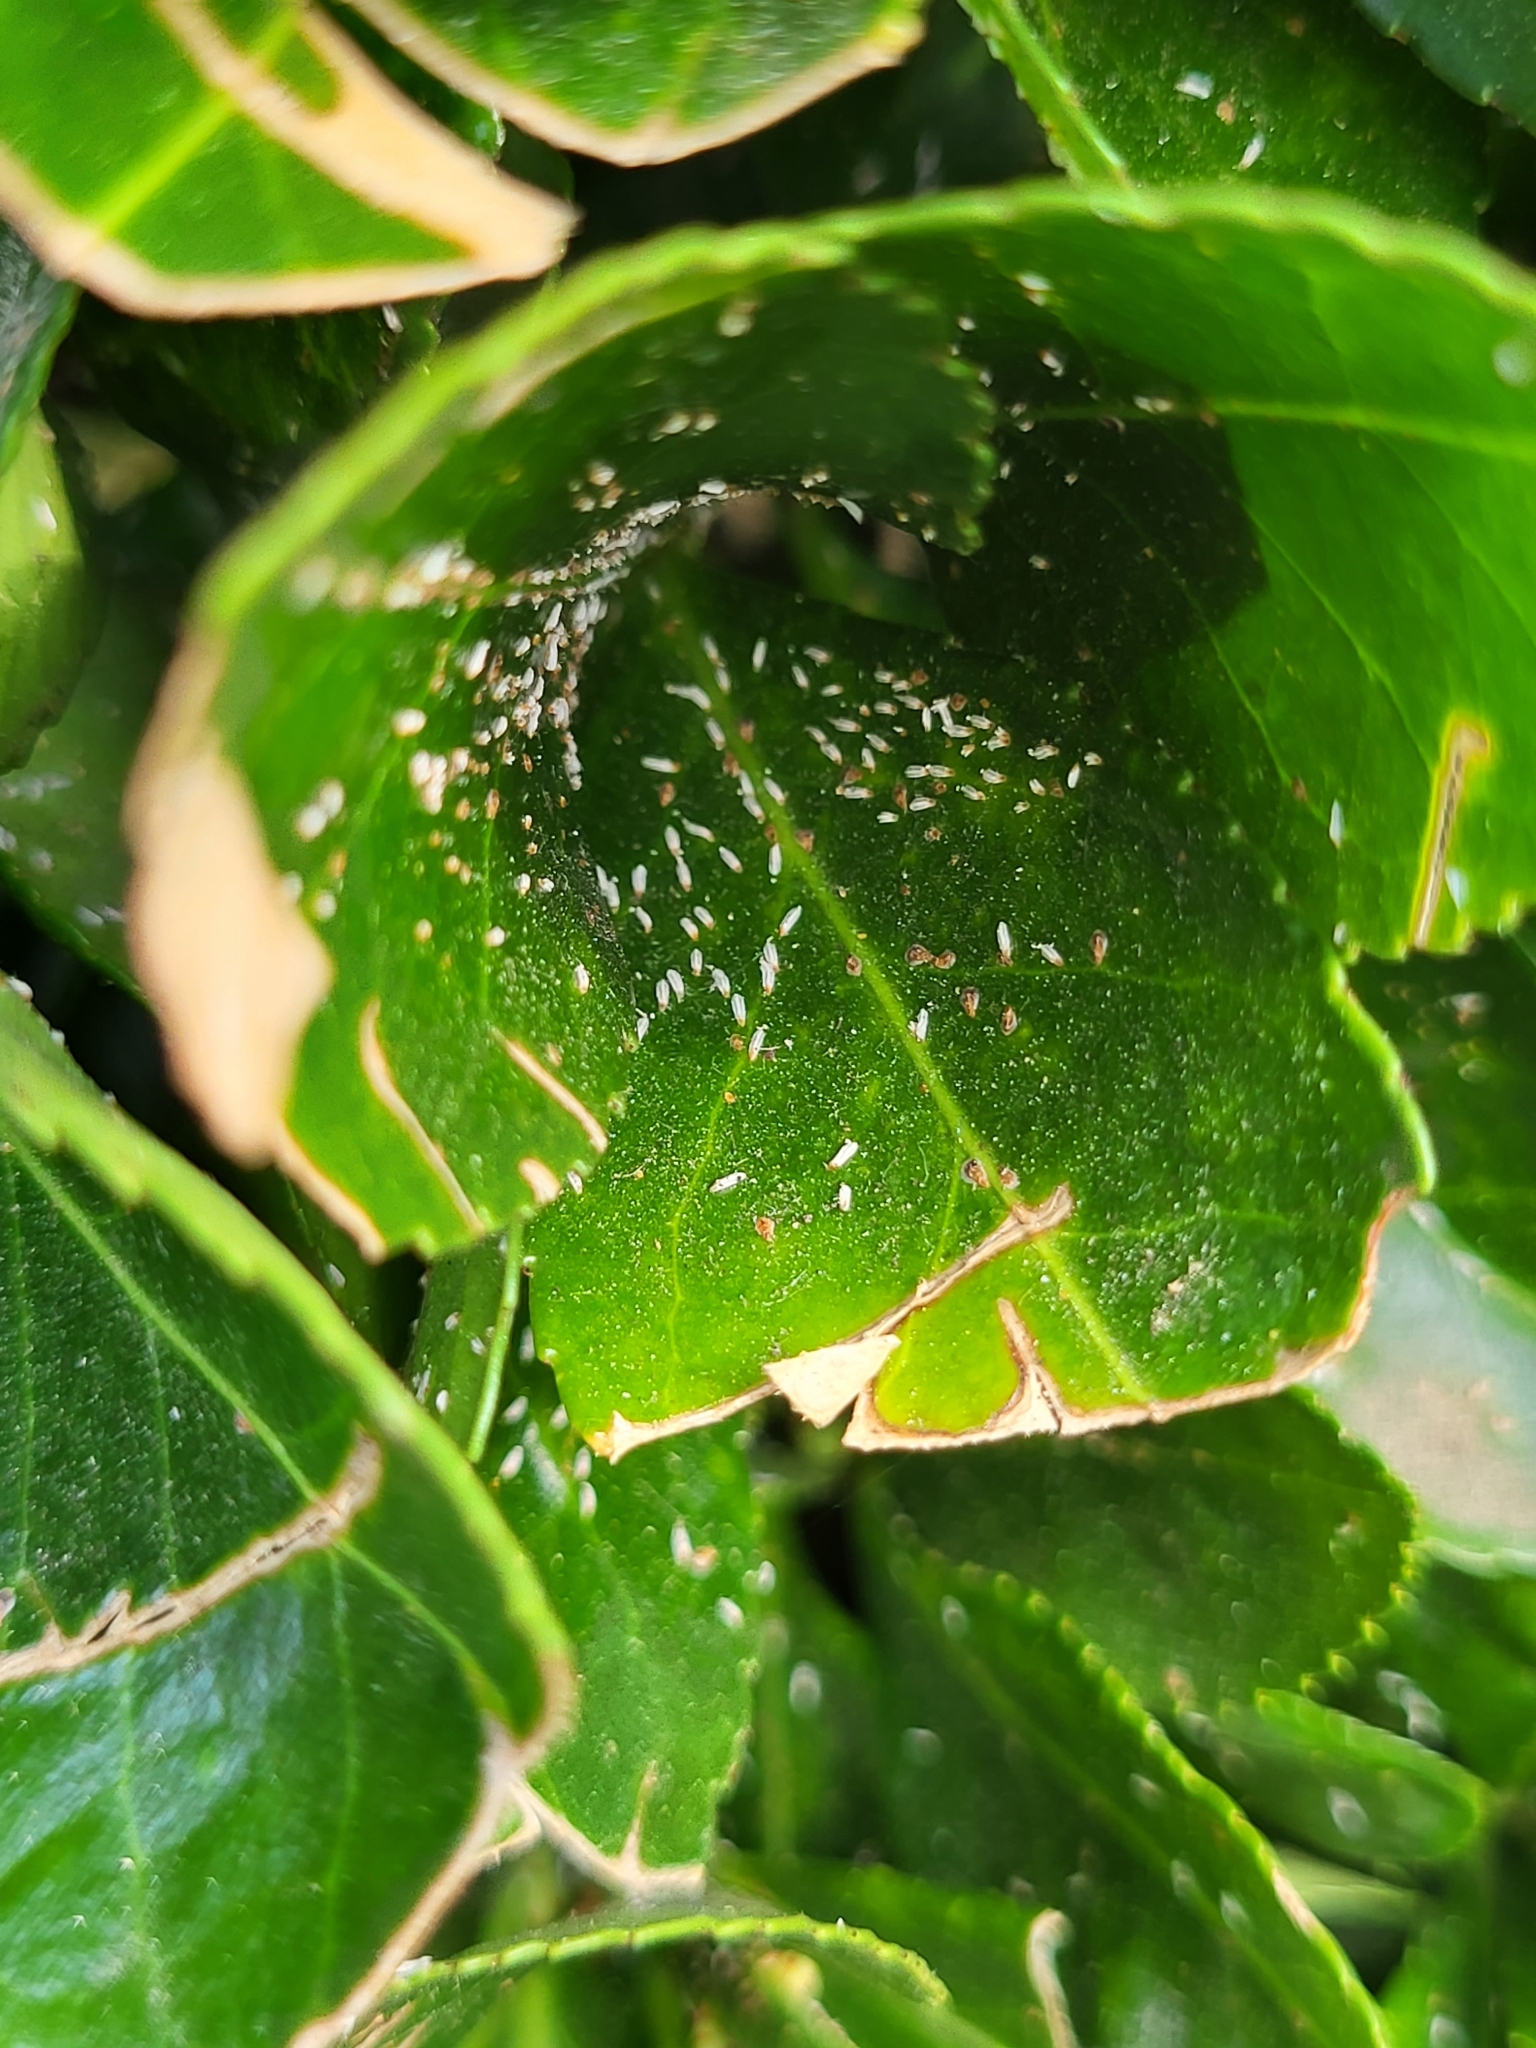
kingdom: Animalia
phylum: Arthropoda
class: Insecta
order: Hemiptera
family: Diaspididae
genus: Unaspis
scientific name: Unaspis euonymi
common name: Euonymus scale
